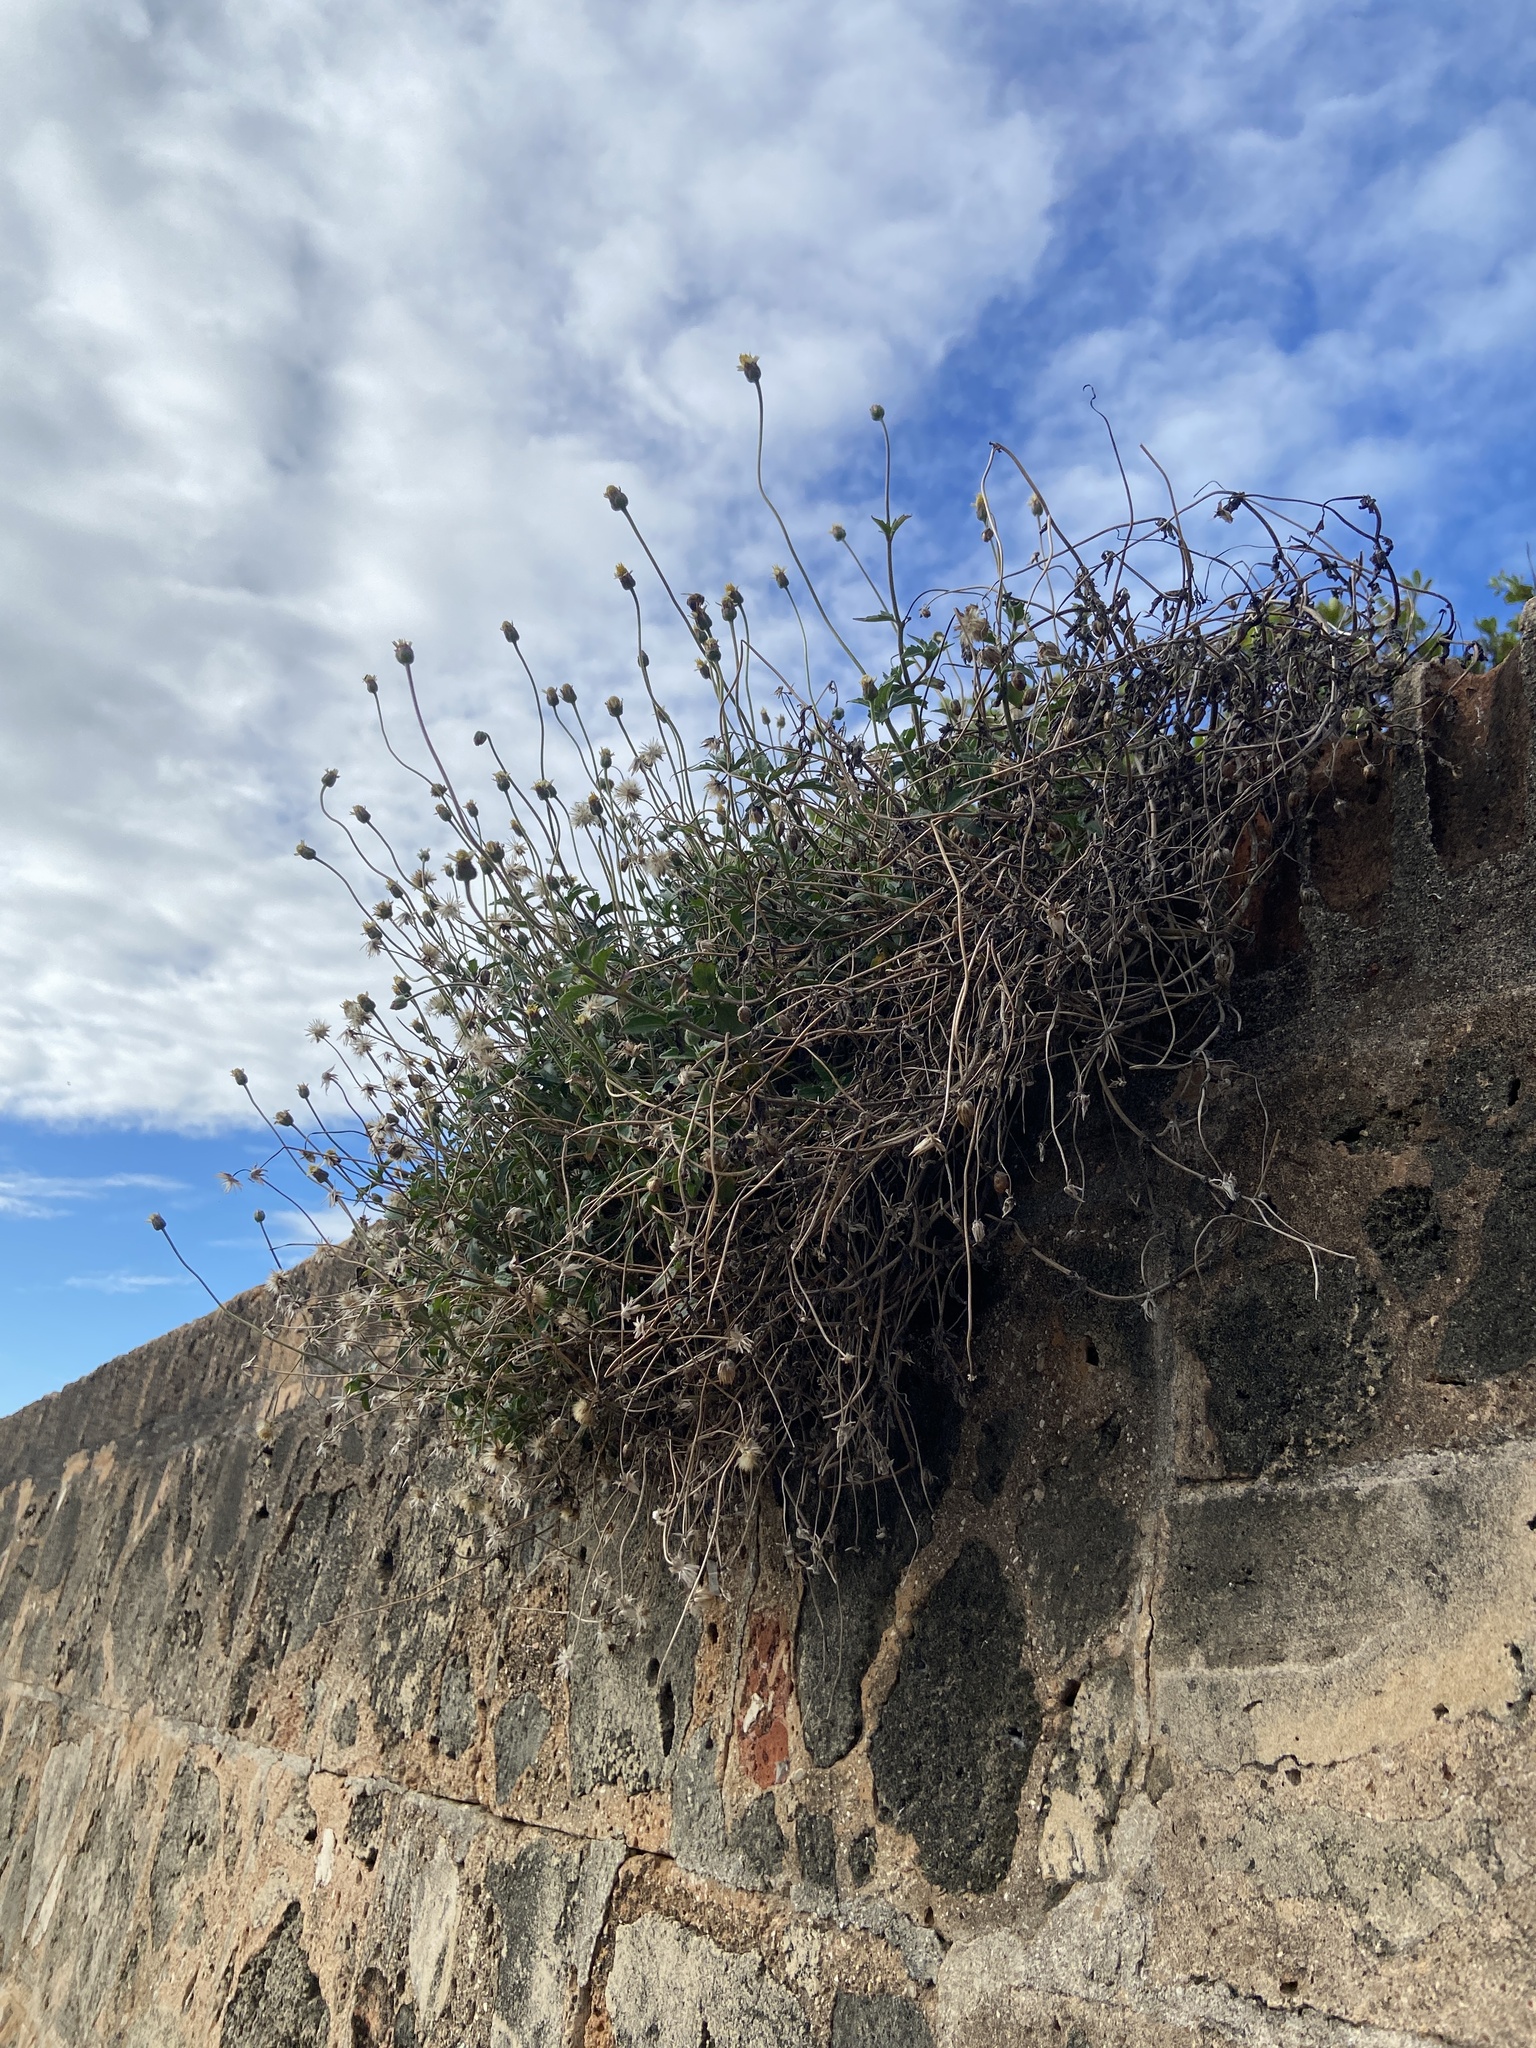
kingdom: Plantae
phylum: Tracheophyta
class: Magnoliopsida
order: Asterales
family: Asteraceae
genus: Tridax
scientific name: Tridax procumbens
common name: Coatbuttons
